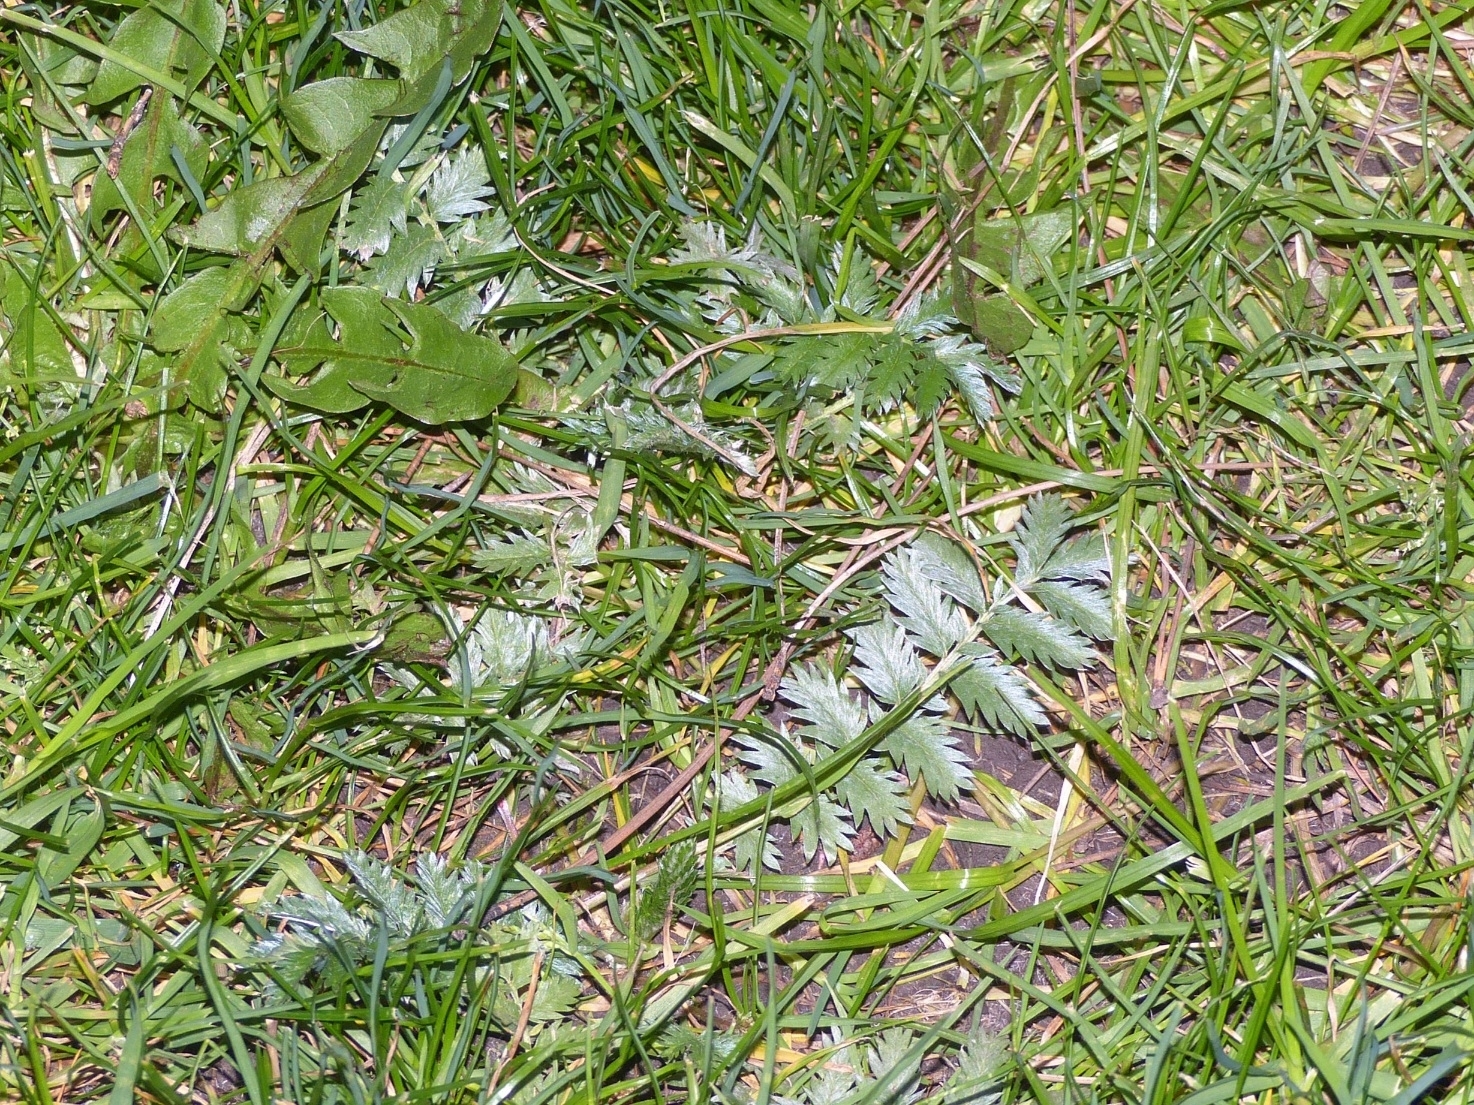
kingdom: Plantae
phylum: Tracheophyta
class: Magnoliopsida
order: Rosales
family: Rosaceae
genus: Argentina
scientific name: Argentina anserina
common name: Common silverweed
